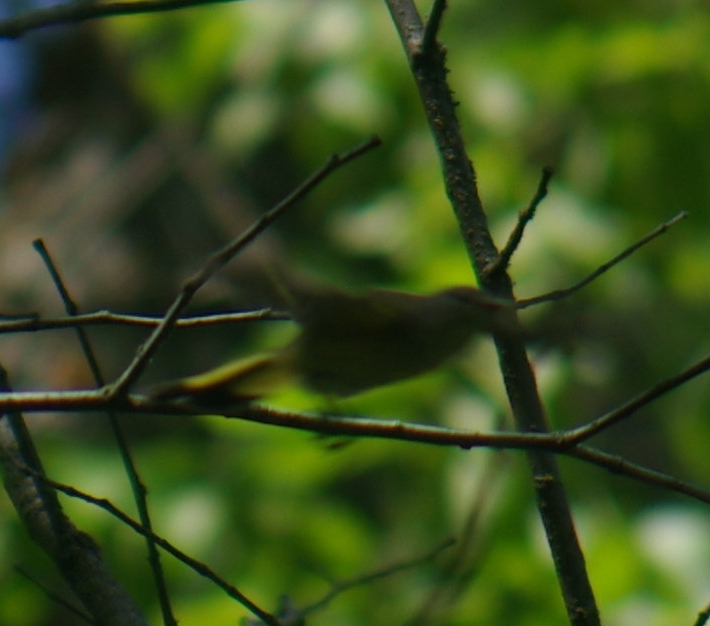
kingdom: Animalia
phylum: Chordata
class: Aves
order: Passeriformes
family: Parulidae
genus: Setophaga
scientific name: Setophaga ruticilla
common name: American redstart
